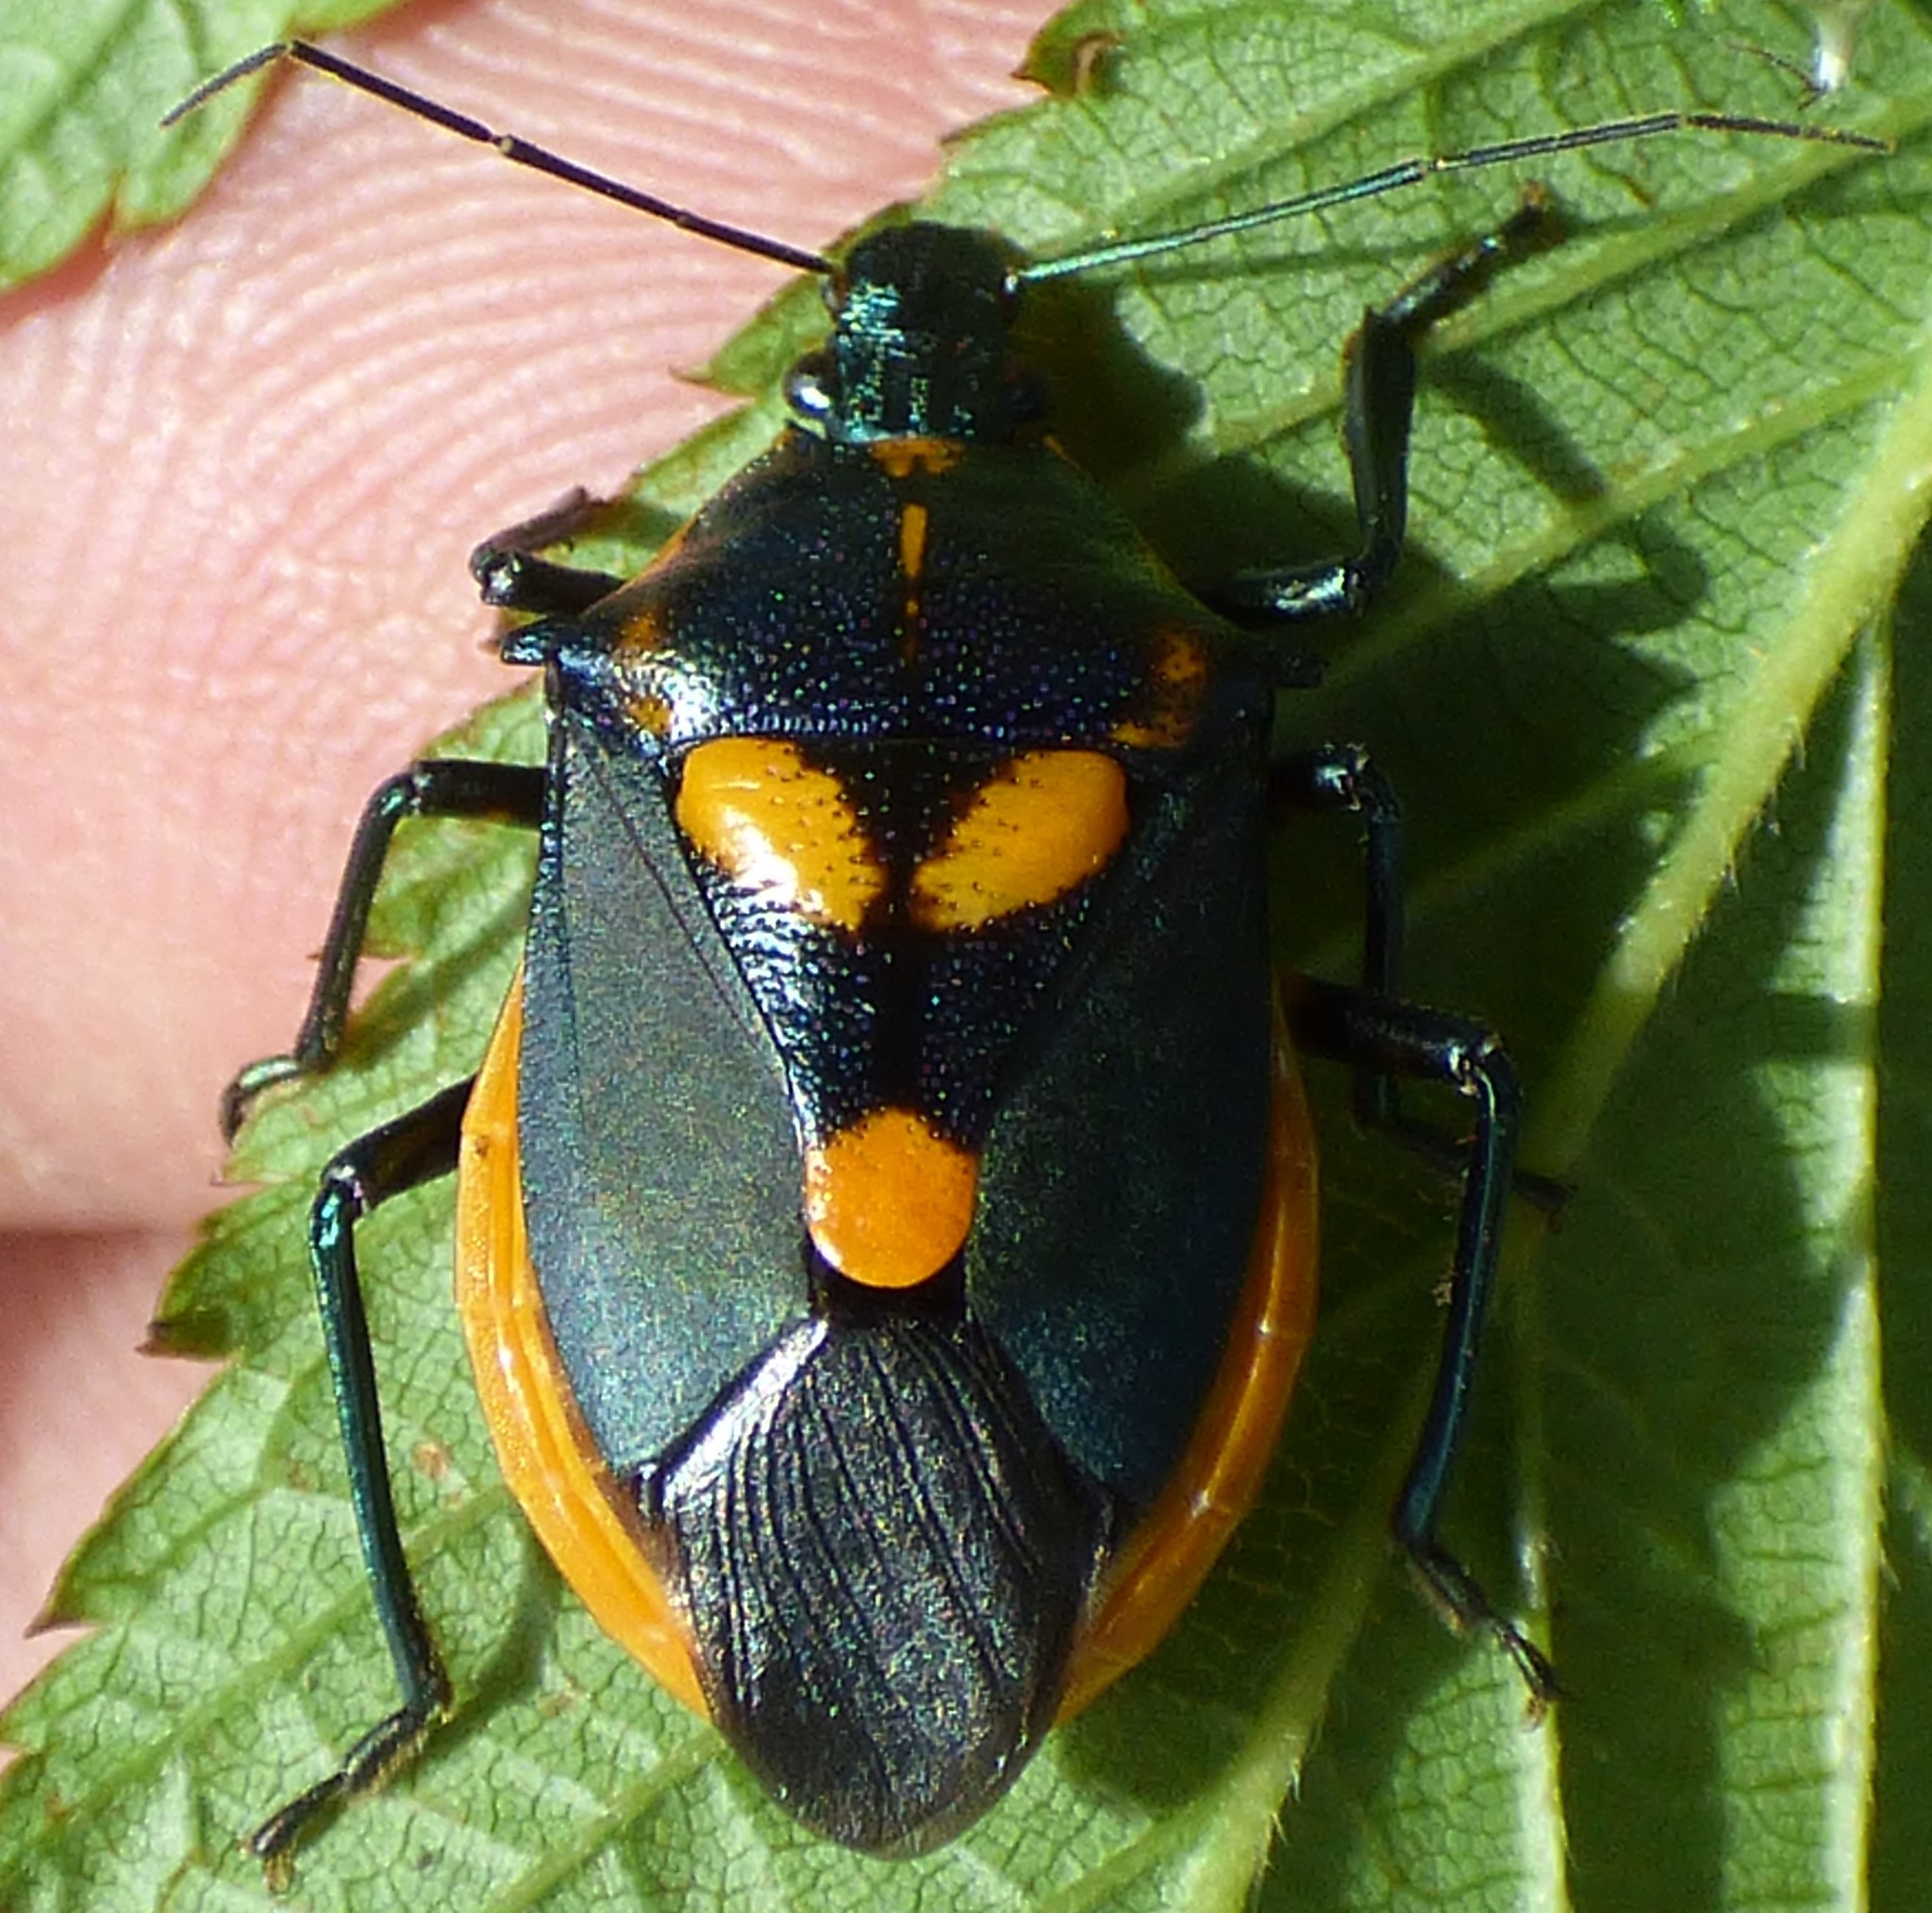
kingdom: Animalia
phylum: Arthropoda
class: Insecta
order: Hemiptera
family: Pentatomidae
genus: Euthyrhynchus
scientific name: Euthyrhynchus floridanus
